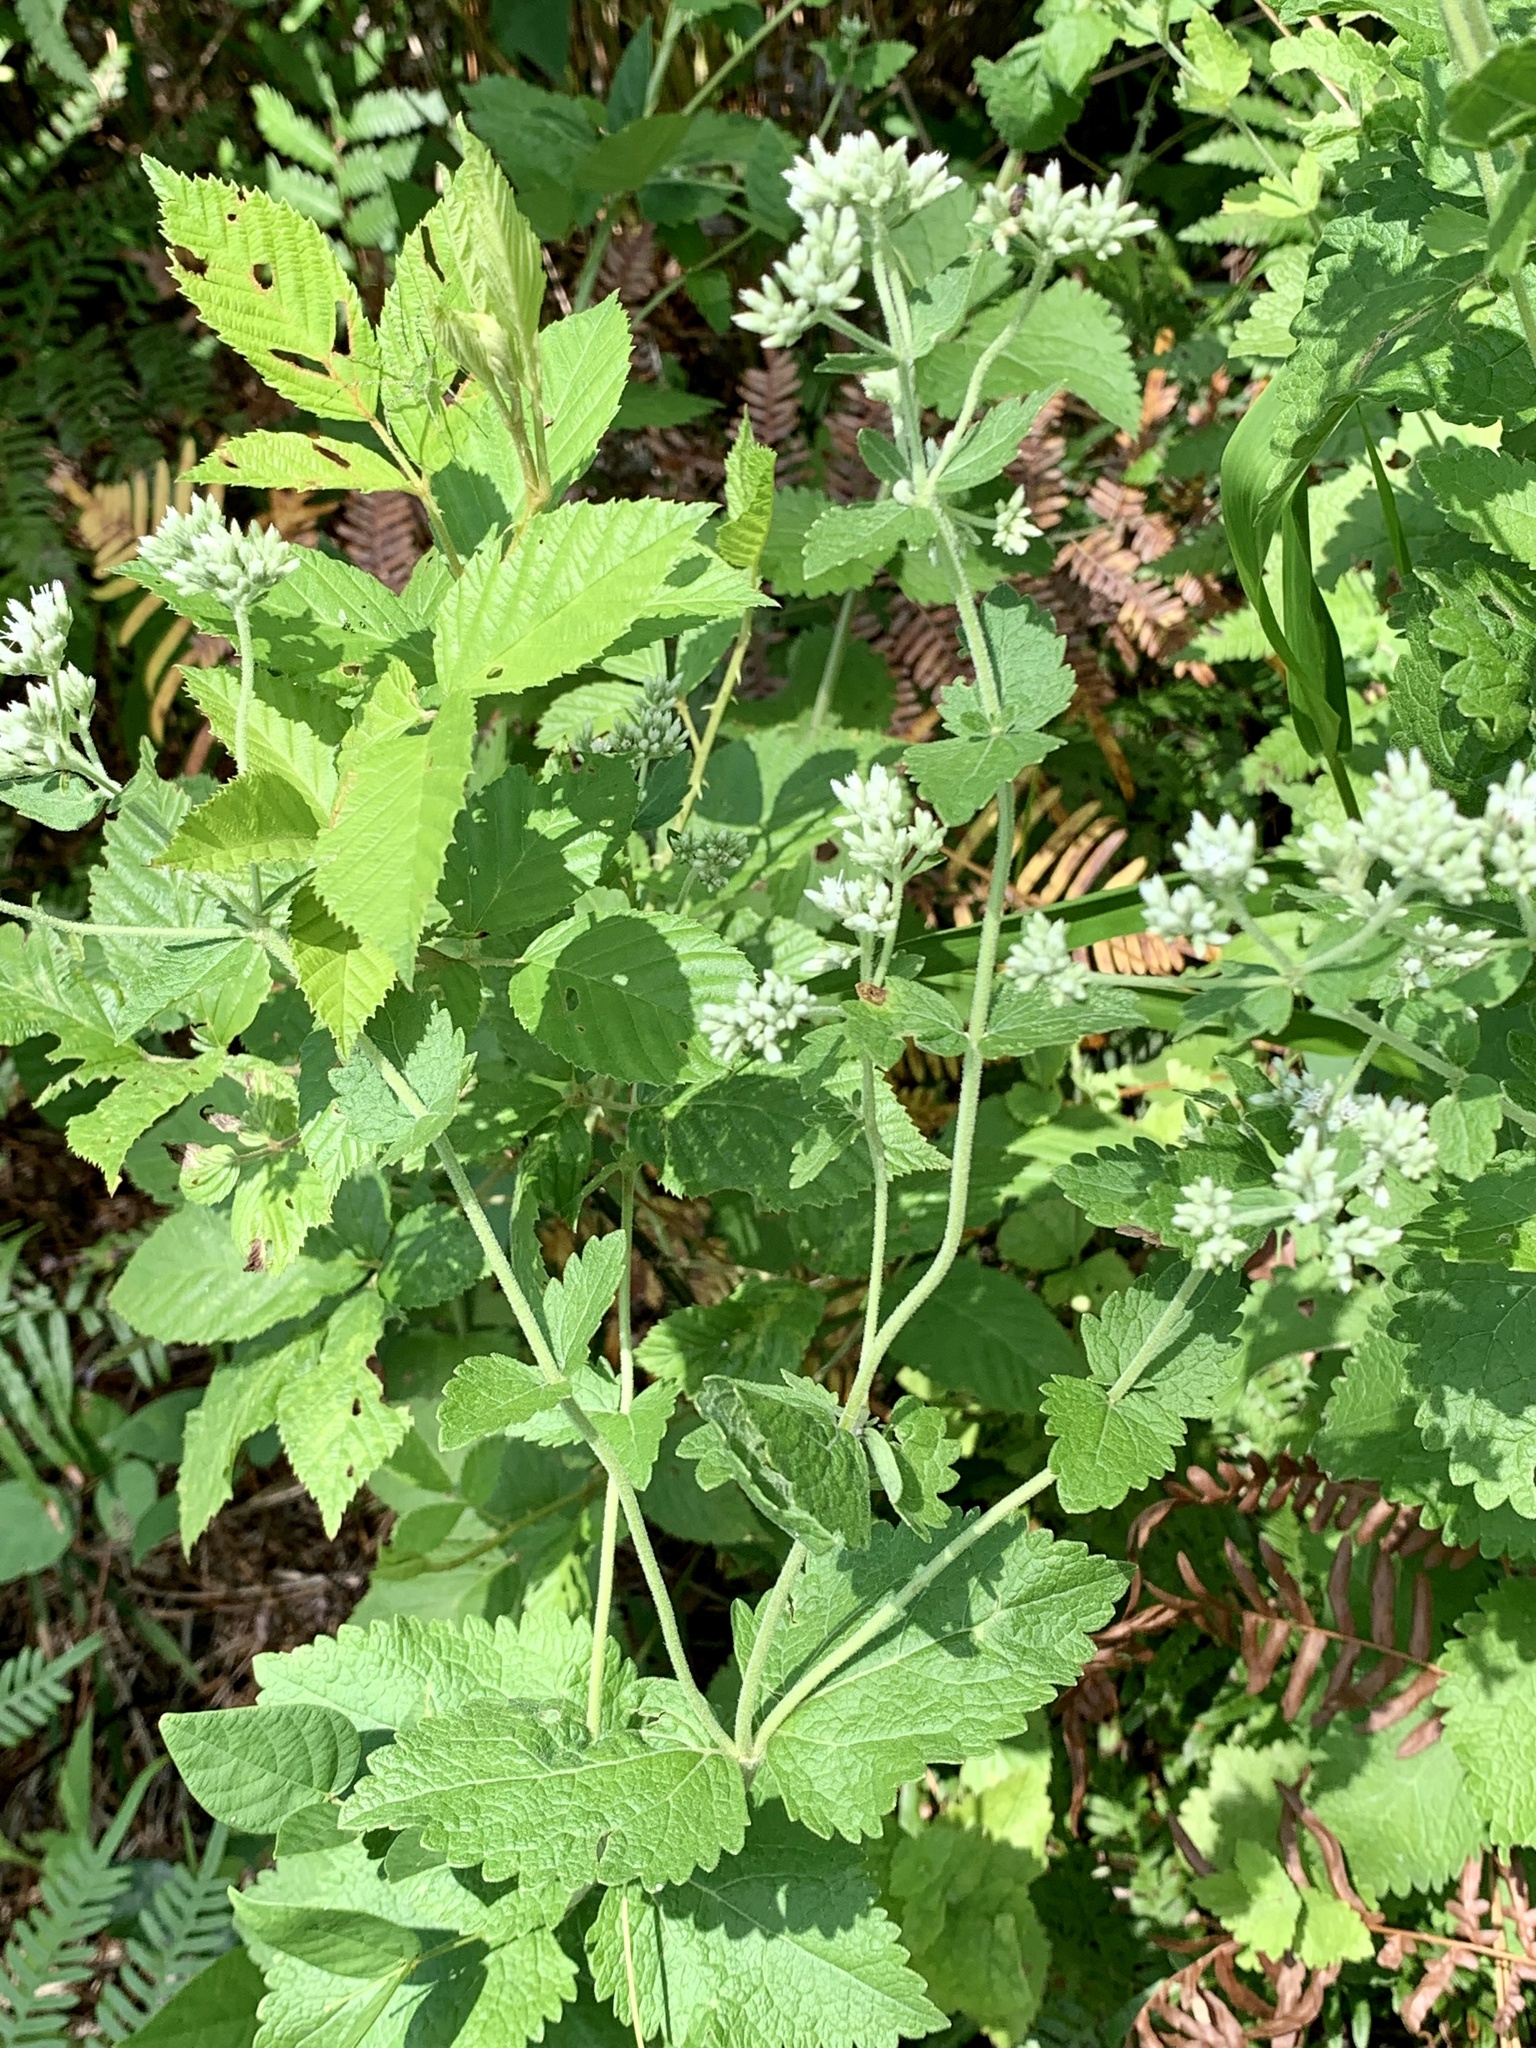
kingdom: Plantae
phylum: Tracheophyta
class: Magnoliopsida
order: Asterales
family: Asteraceae
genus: Eupatorium
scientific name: Eupatorium rotundifolium
